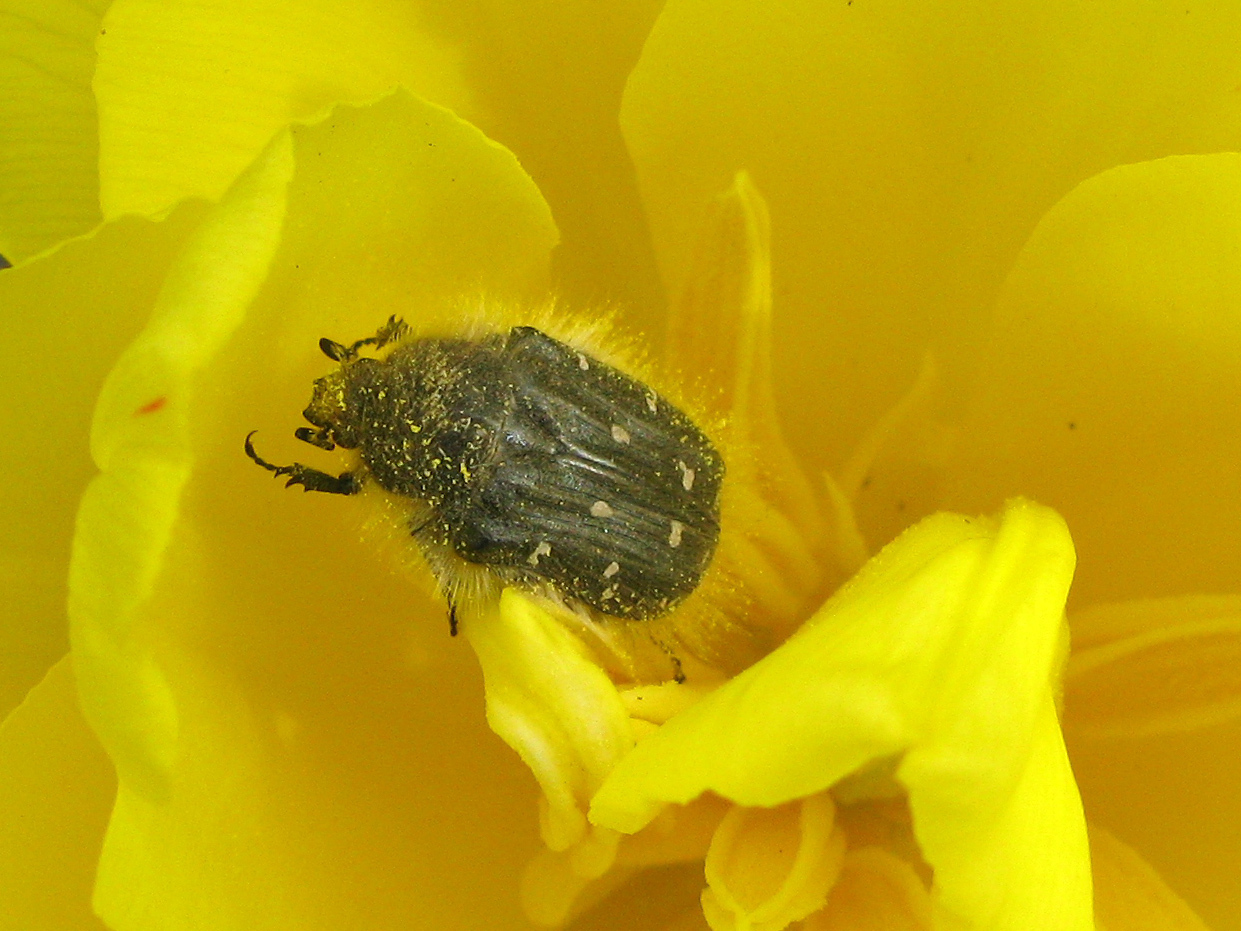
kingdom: Animalia
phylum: Arthropoda
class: Insecta
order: Coleoptera
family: Scarabaeidae
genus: Tropinota
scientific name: Tropinota hirta
